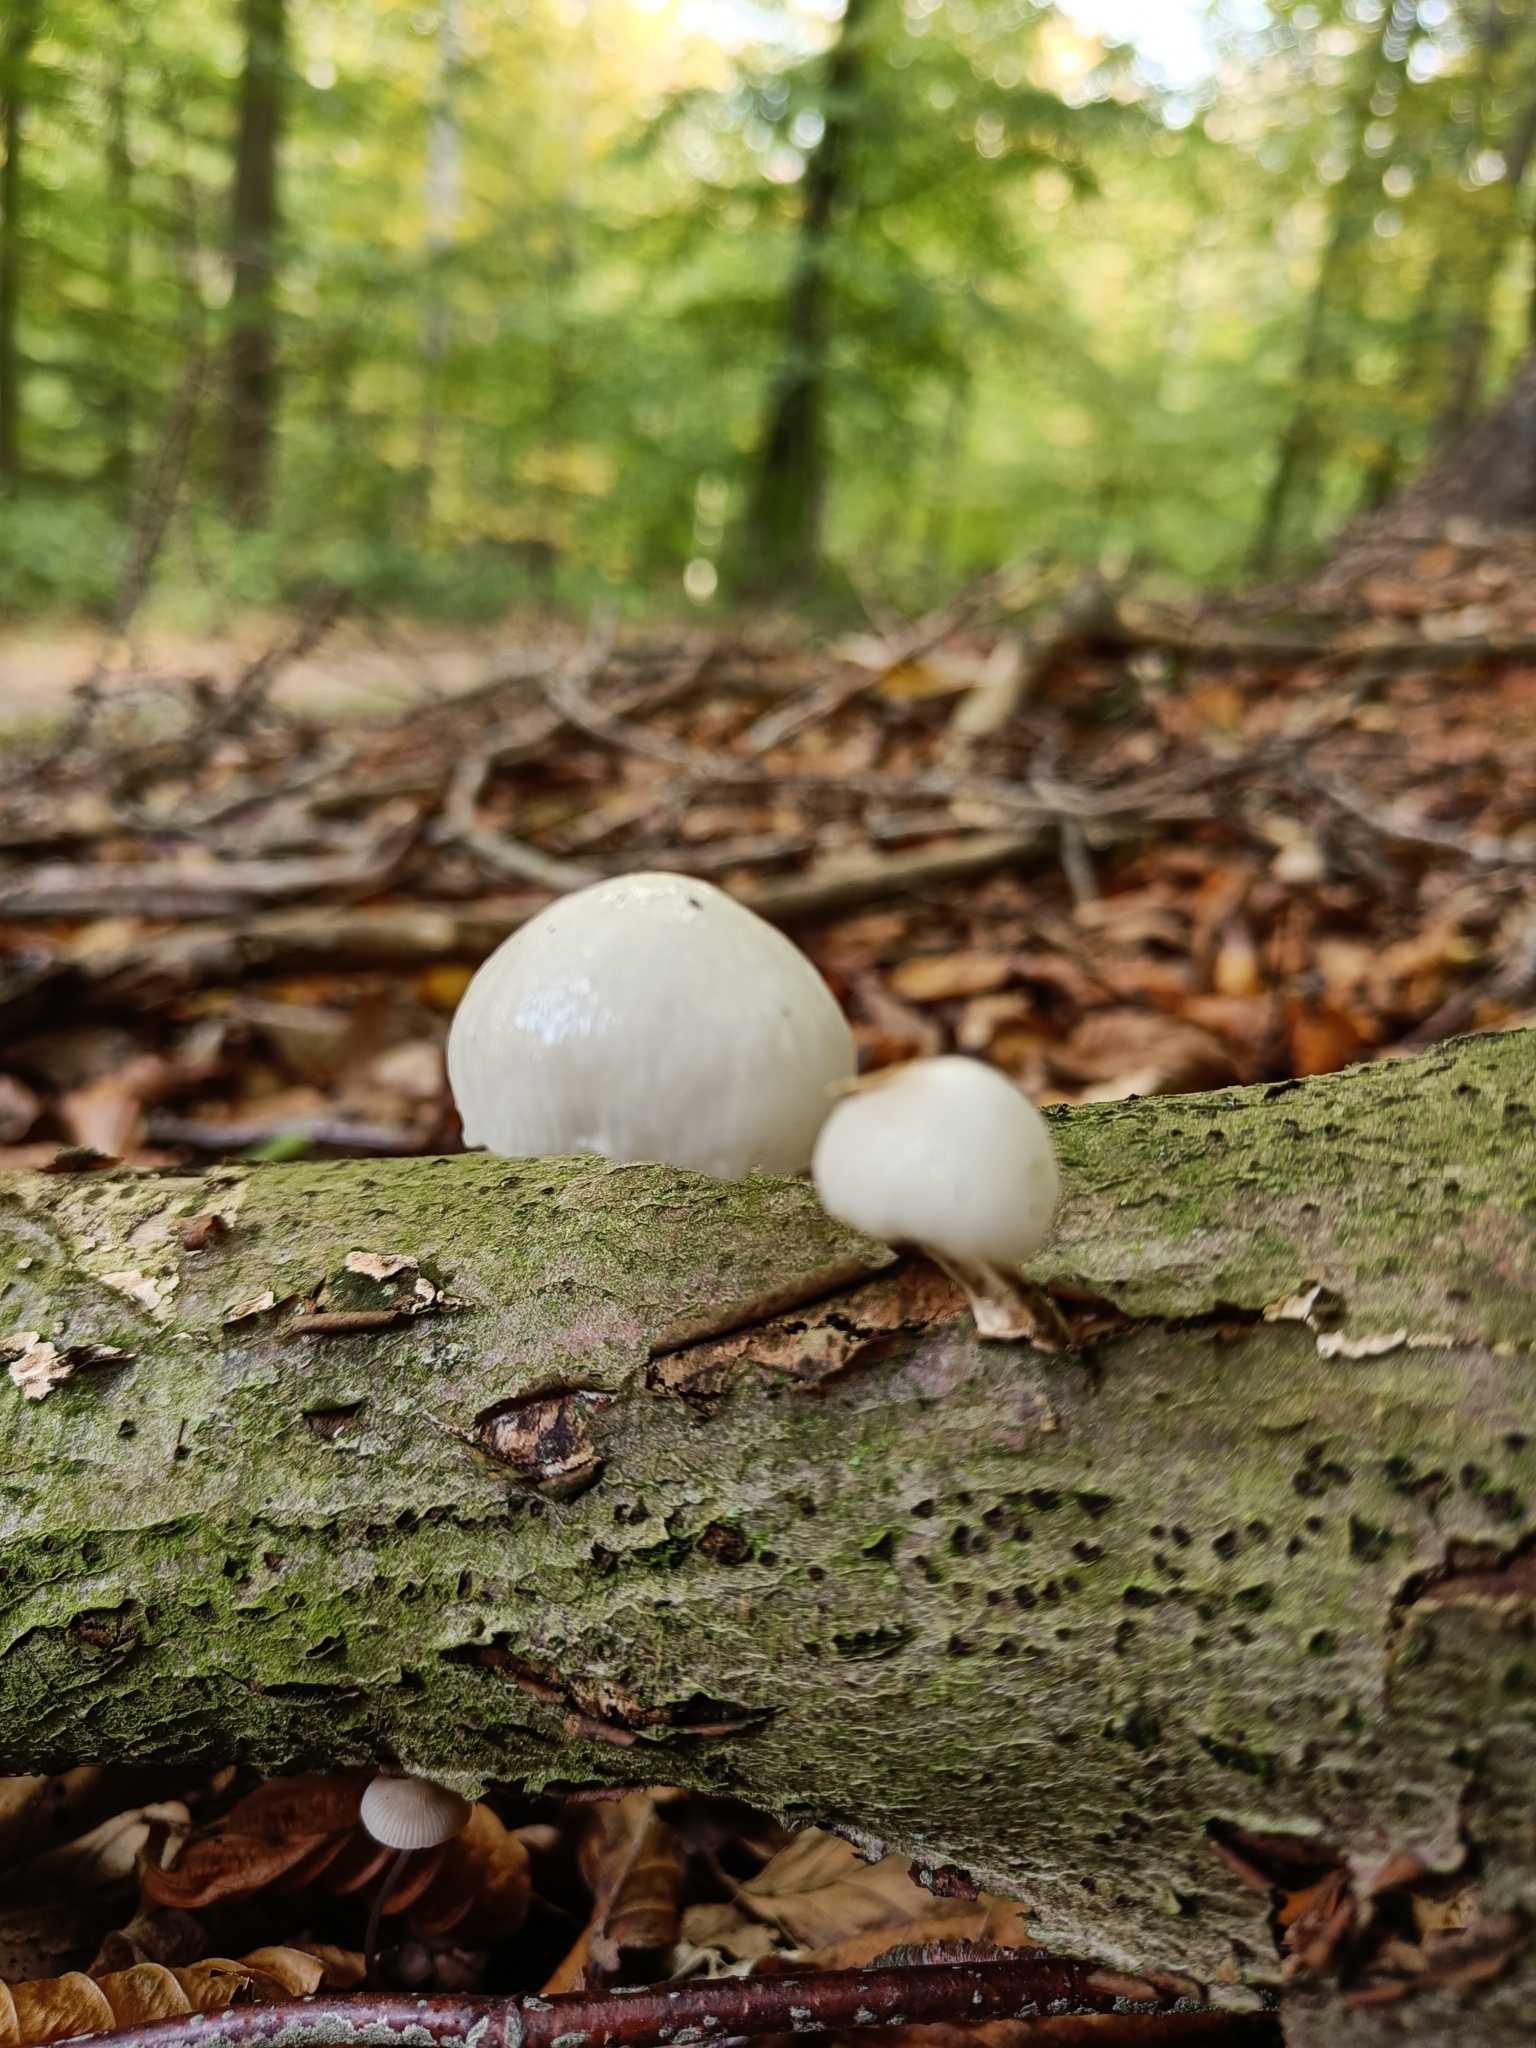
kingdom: Fungi
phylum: Basidiomycota
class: Agaricomycetes
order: Agaricales
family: Physalacriaceae
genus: Mucidula
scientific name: Mucidula mucida
